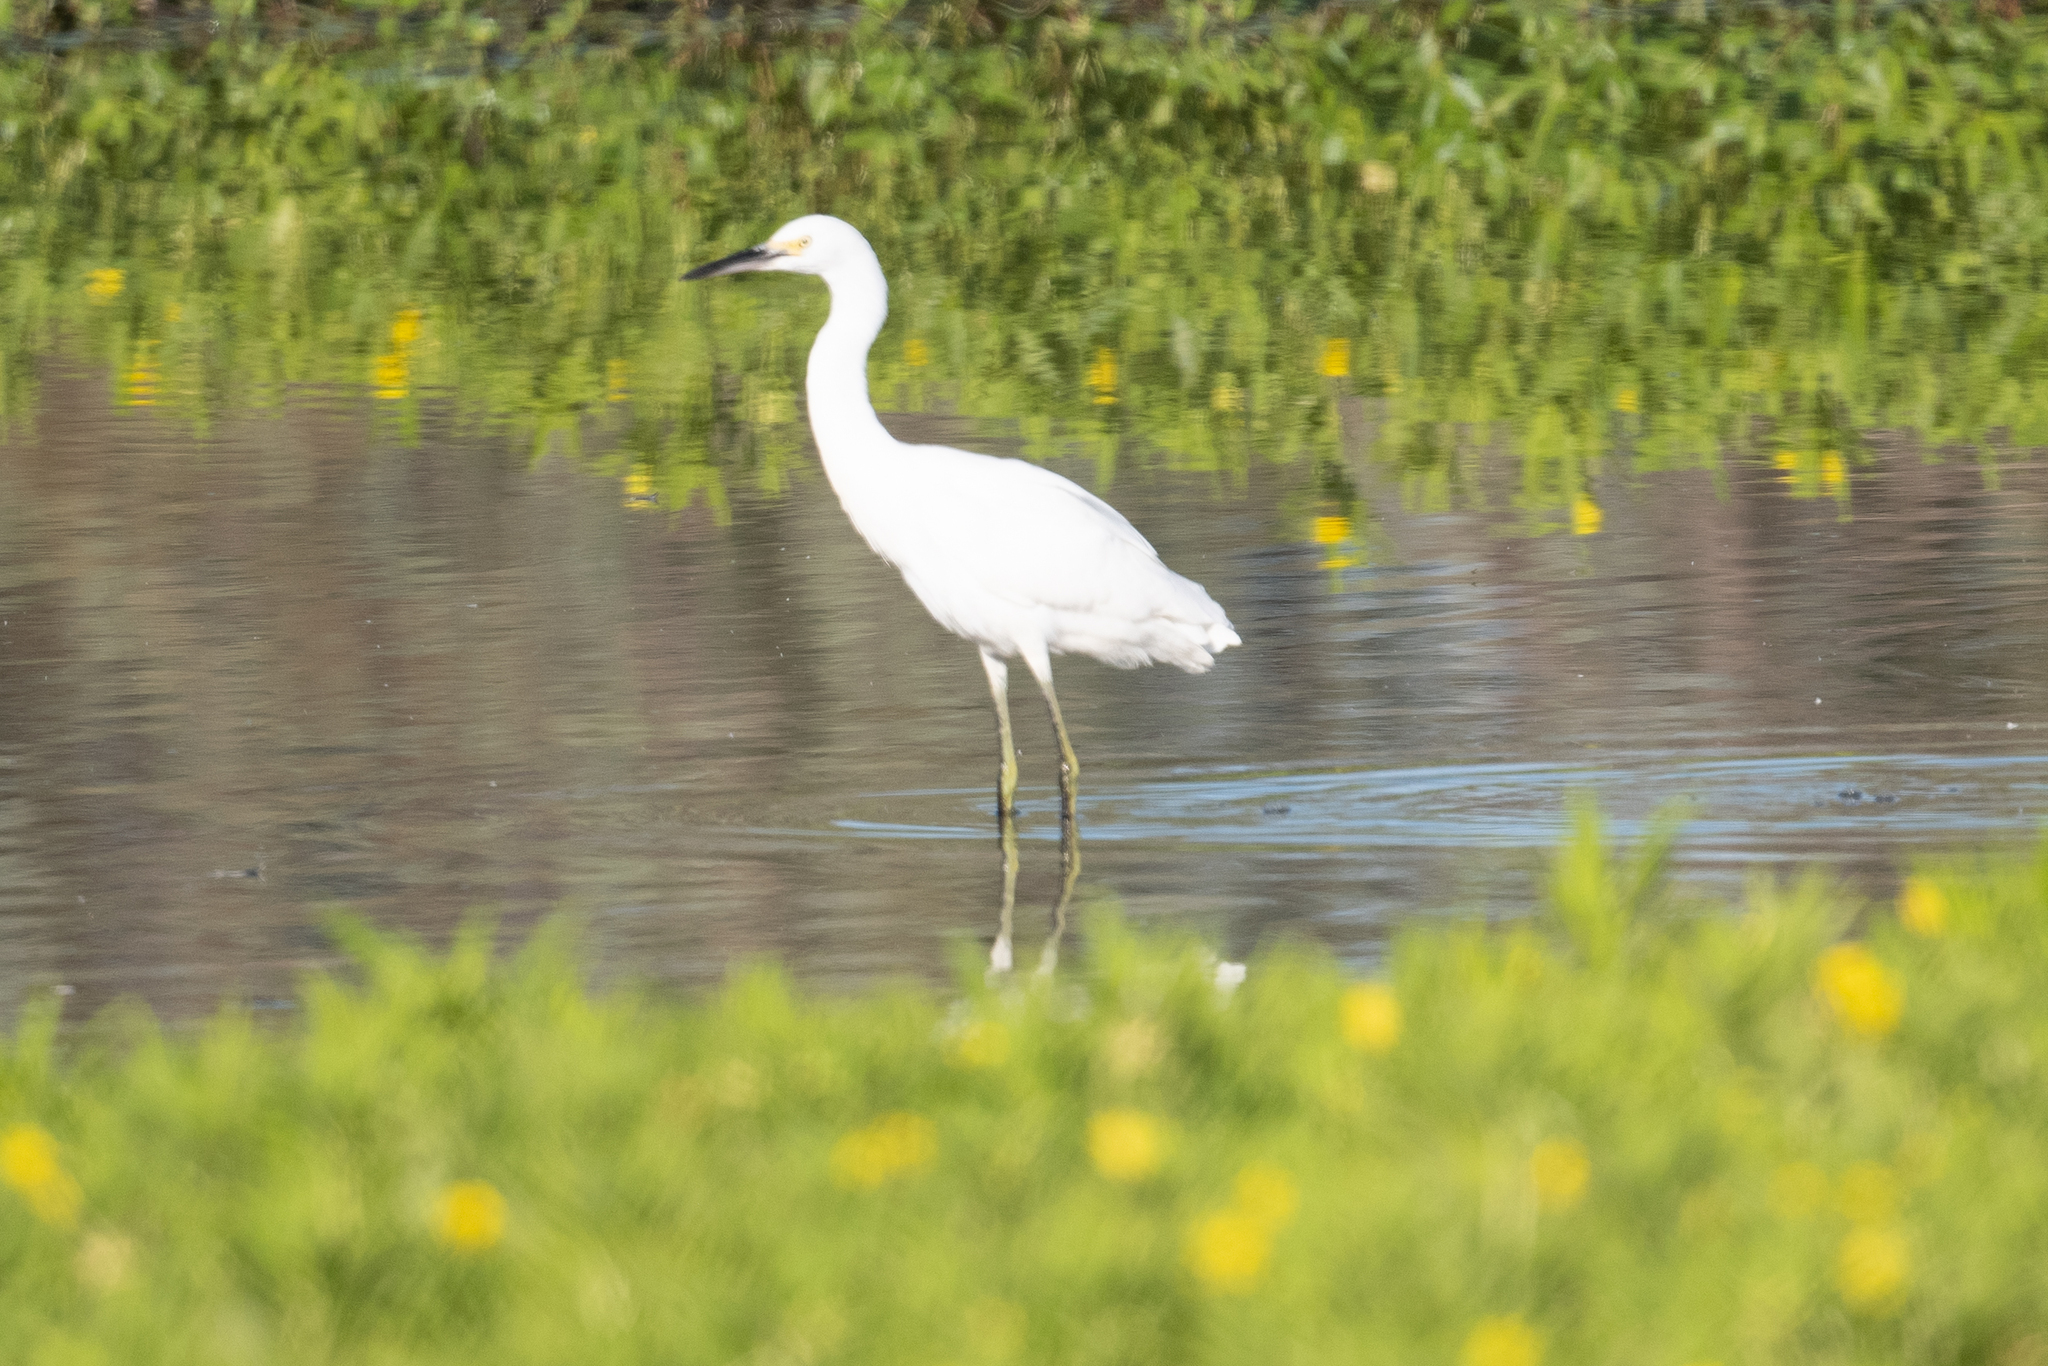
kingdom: Animalia
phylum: Chordata
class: Aves
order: Pelecaniformes
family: Ardeidae
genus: Egretta
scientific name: Egretta thula
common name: Snowy egret
